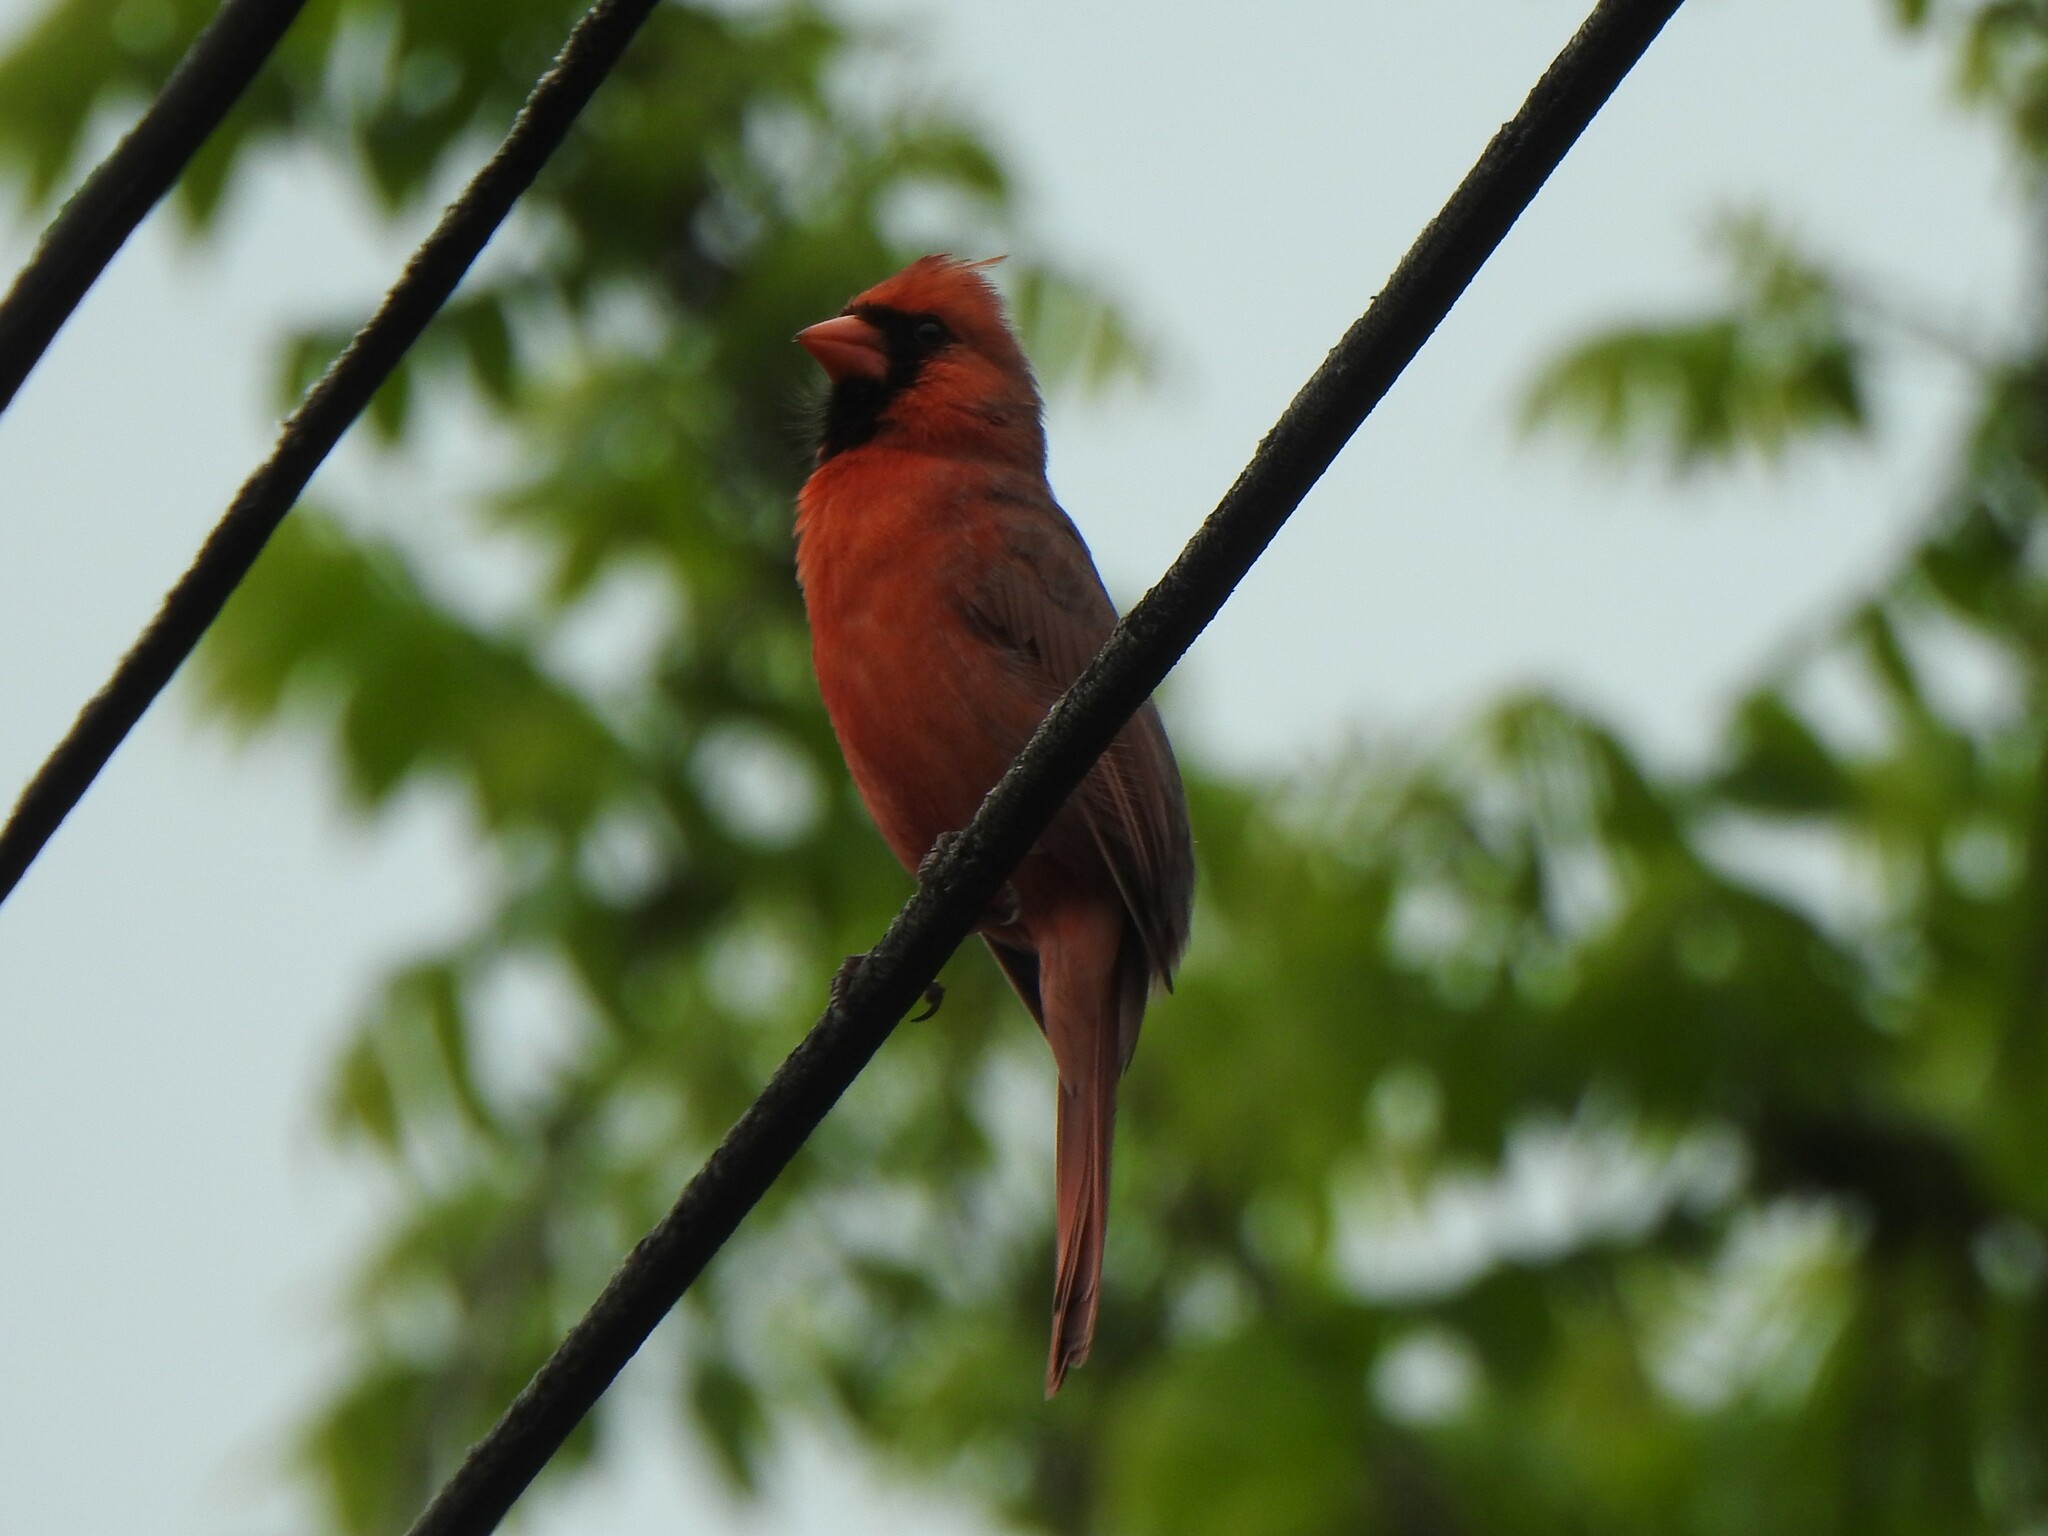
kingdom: Animalia
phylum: Chordata
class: Aves
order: Passeriformes
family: Cardinalidae
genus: Cardinalis
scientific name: Cardinalis cardinalis
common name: Northern cardinal
